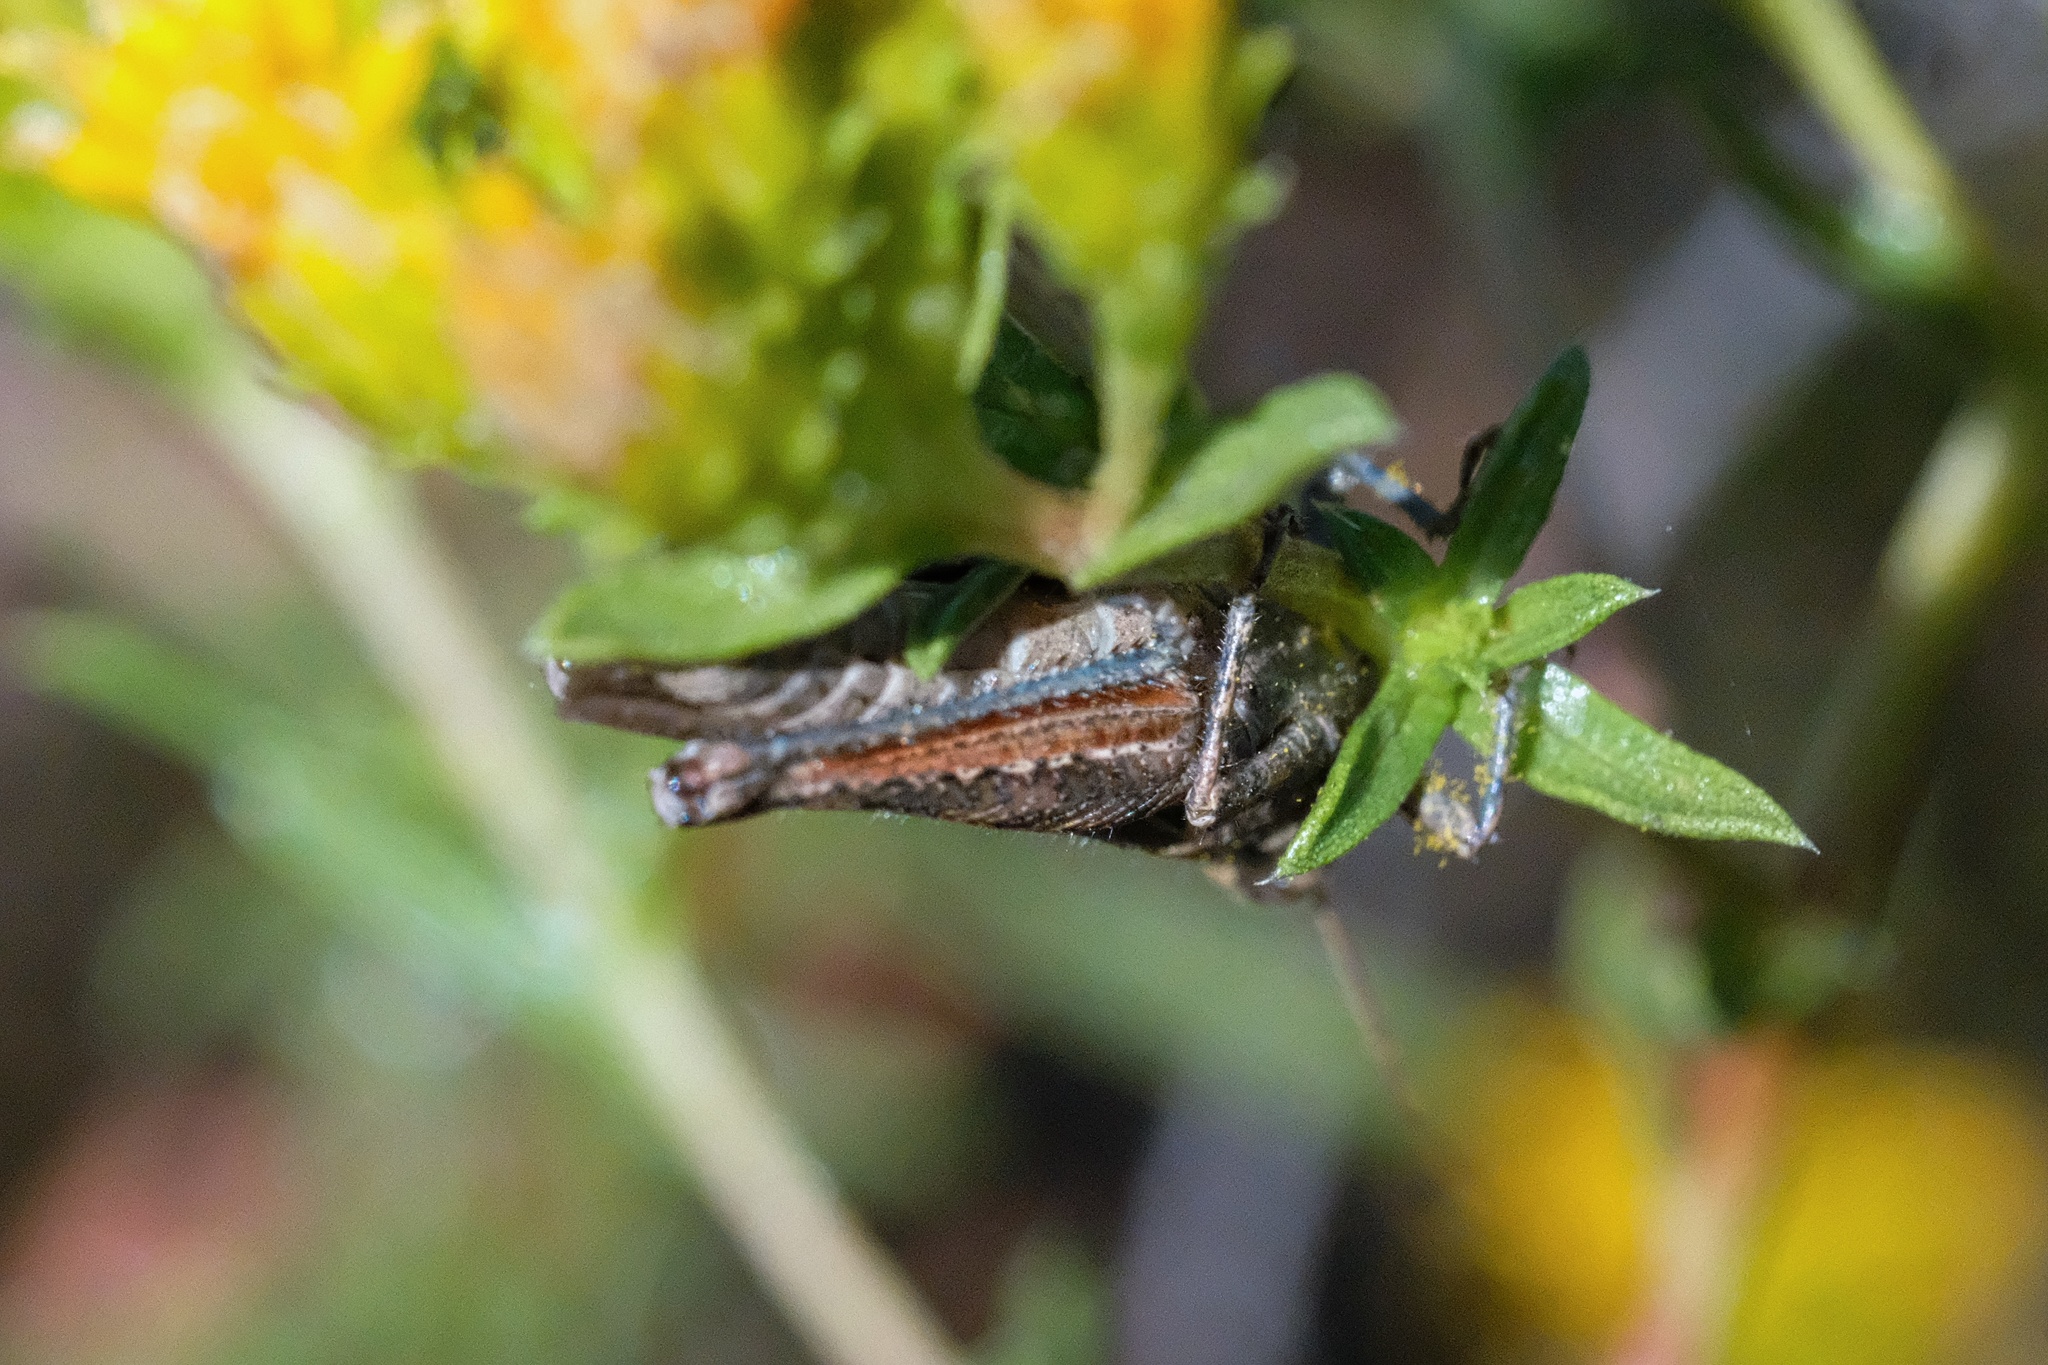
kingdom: Animalia
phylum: Arthropoda
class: Insecta
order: Orthoptera
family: Acrididae
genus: Melanoplus
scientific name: Melanoplus cinereus
